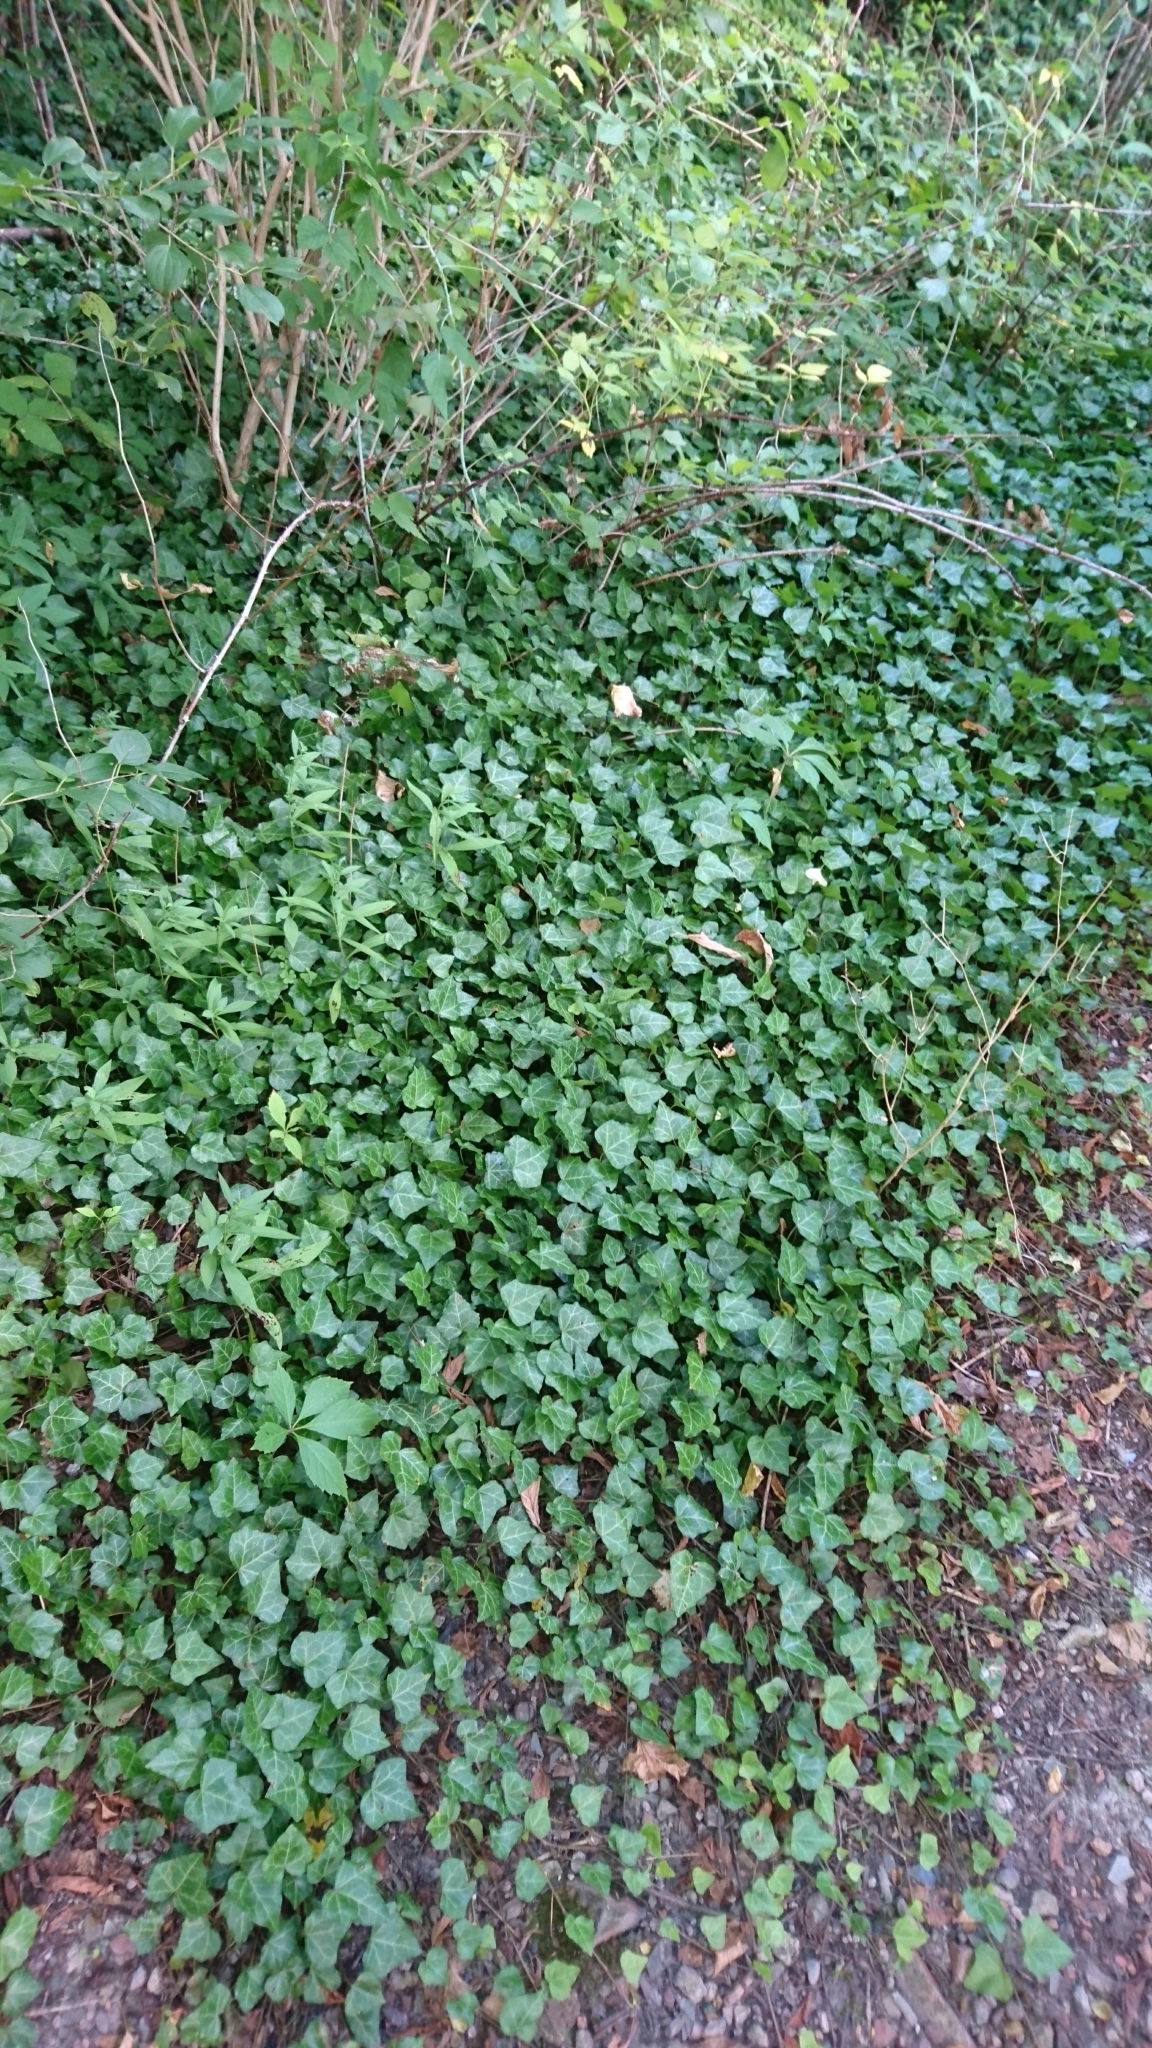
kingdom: Plantae
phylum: Tracheophyta
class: Magnoliopsida
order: Apiales
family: Araliaceae
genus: Hedera
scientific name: Hedera helix
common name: Ivy
